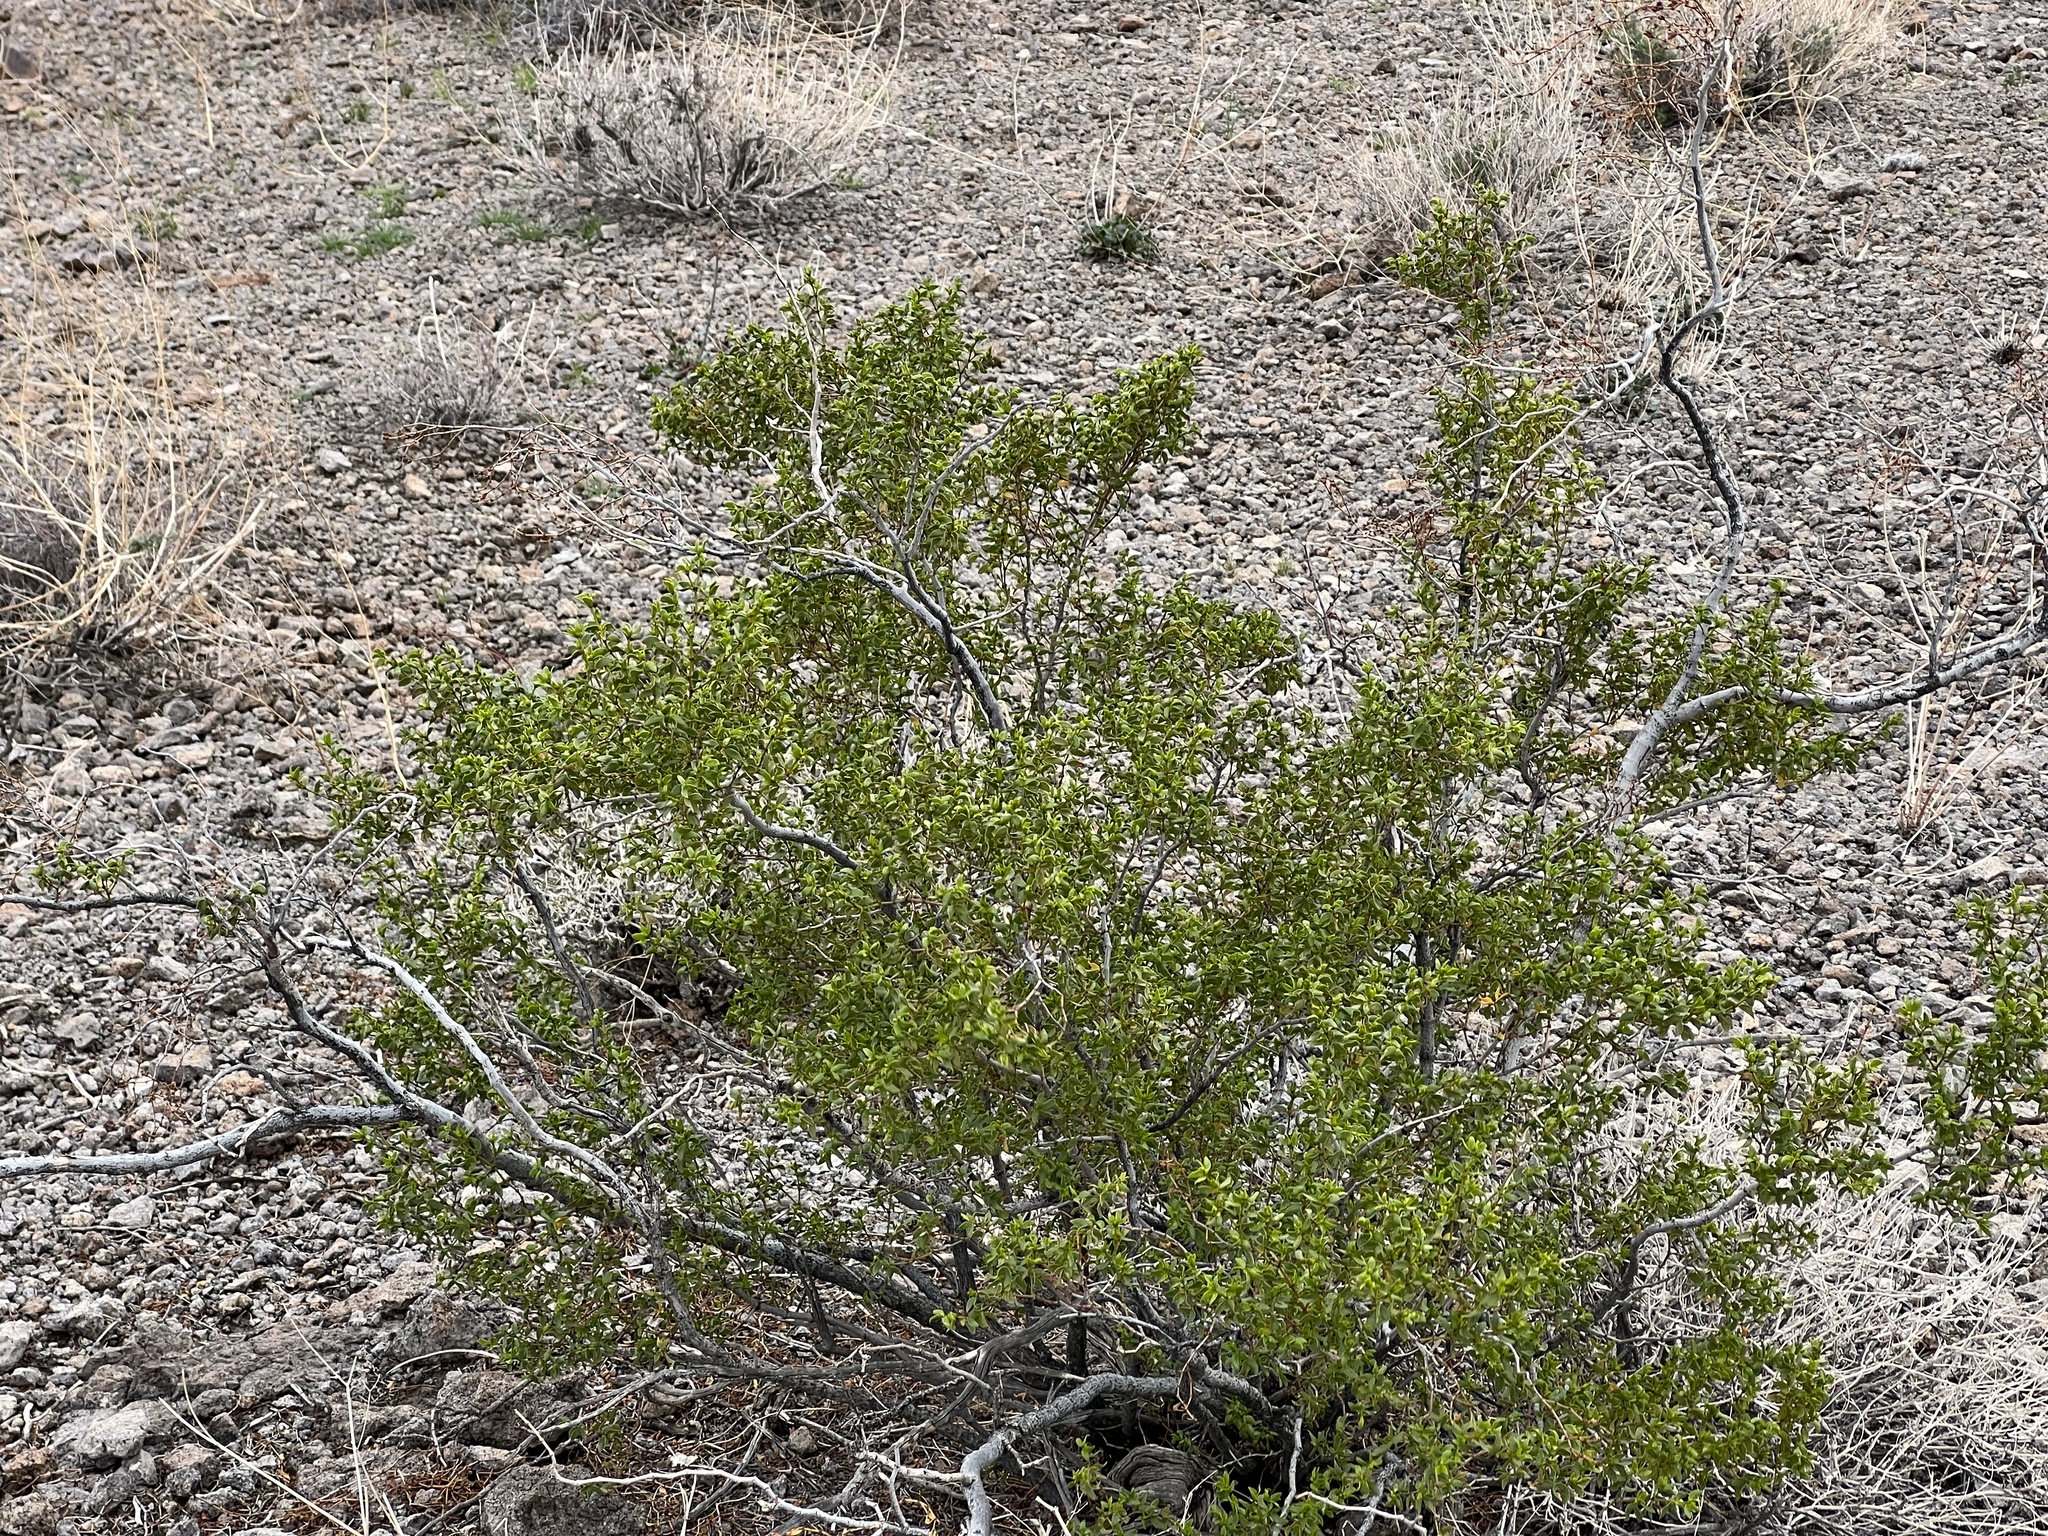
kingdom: Plantae
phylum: Tracheophyta
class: Magnoliopsida
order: Zygophyllales
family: Zygophyllaceae
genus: Larrea
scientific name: Larrea tridentata
